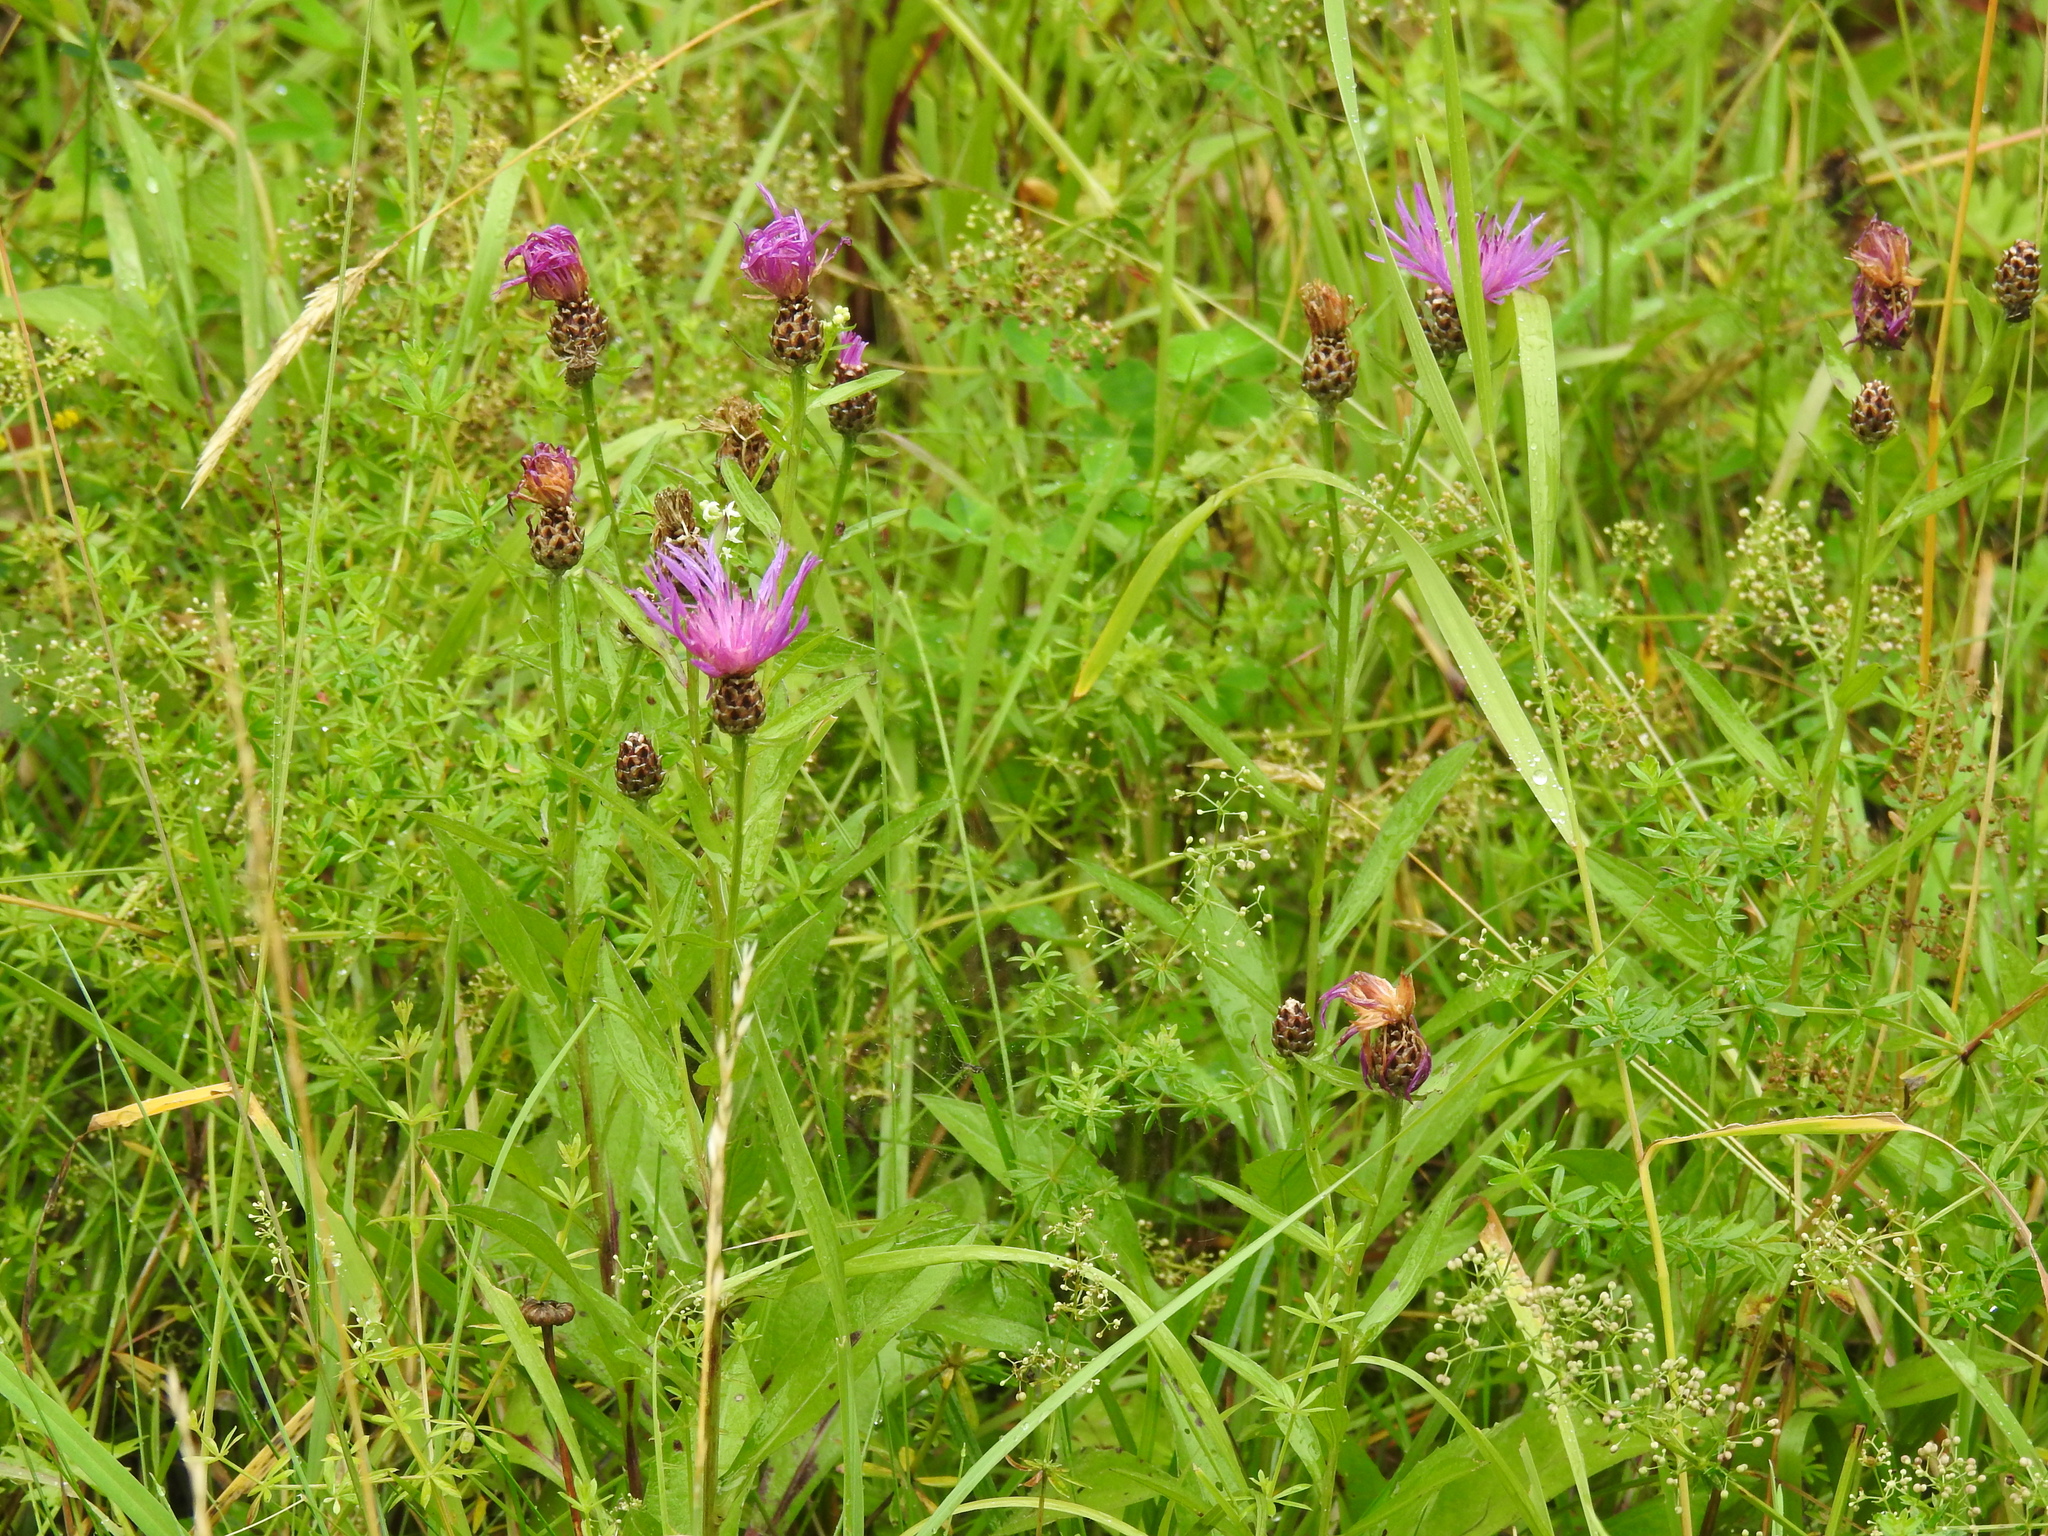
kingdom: Plantae
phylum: Tracheophyta
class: Magnoliopsida
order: Asterales
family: Asteraceae
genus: Centaurea
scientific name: Centaurea jacea
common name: Brown knapweed
